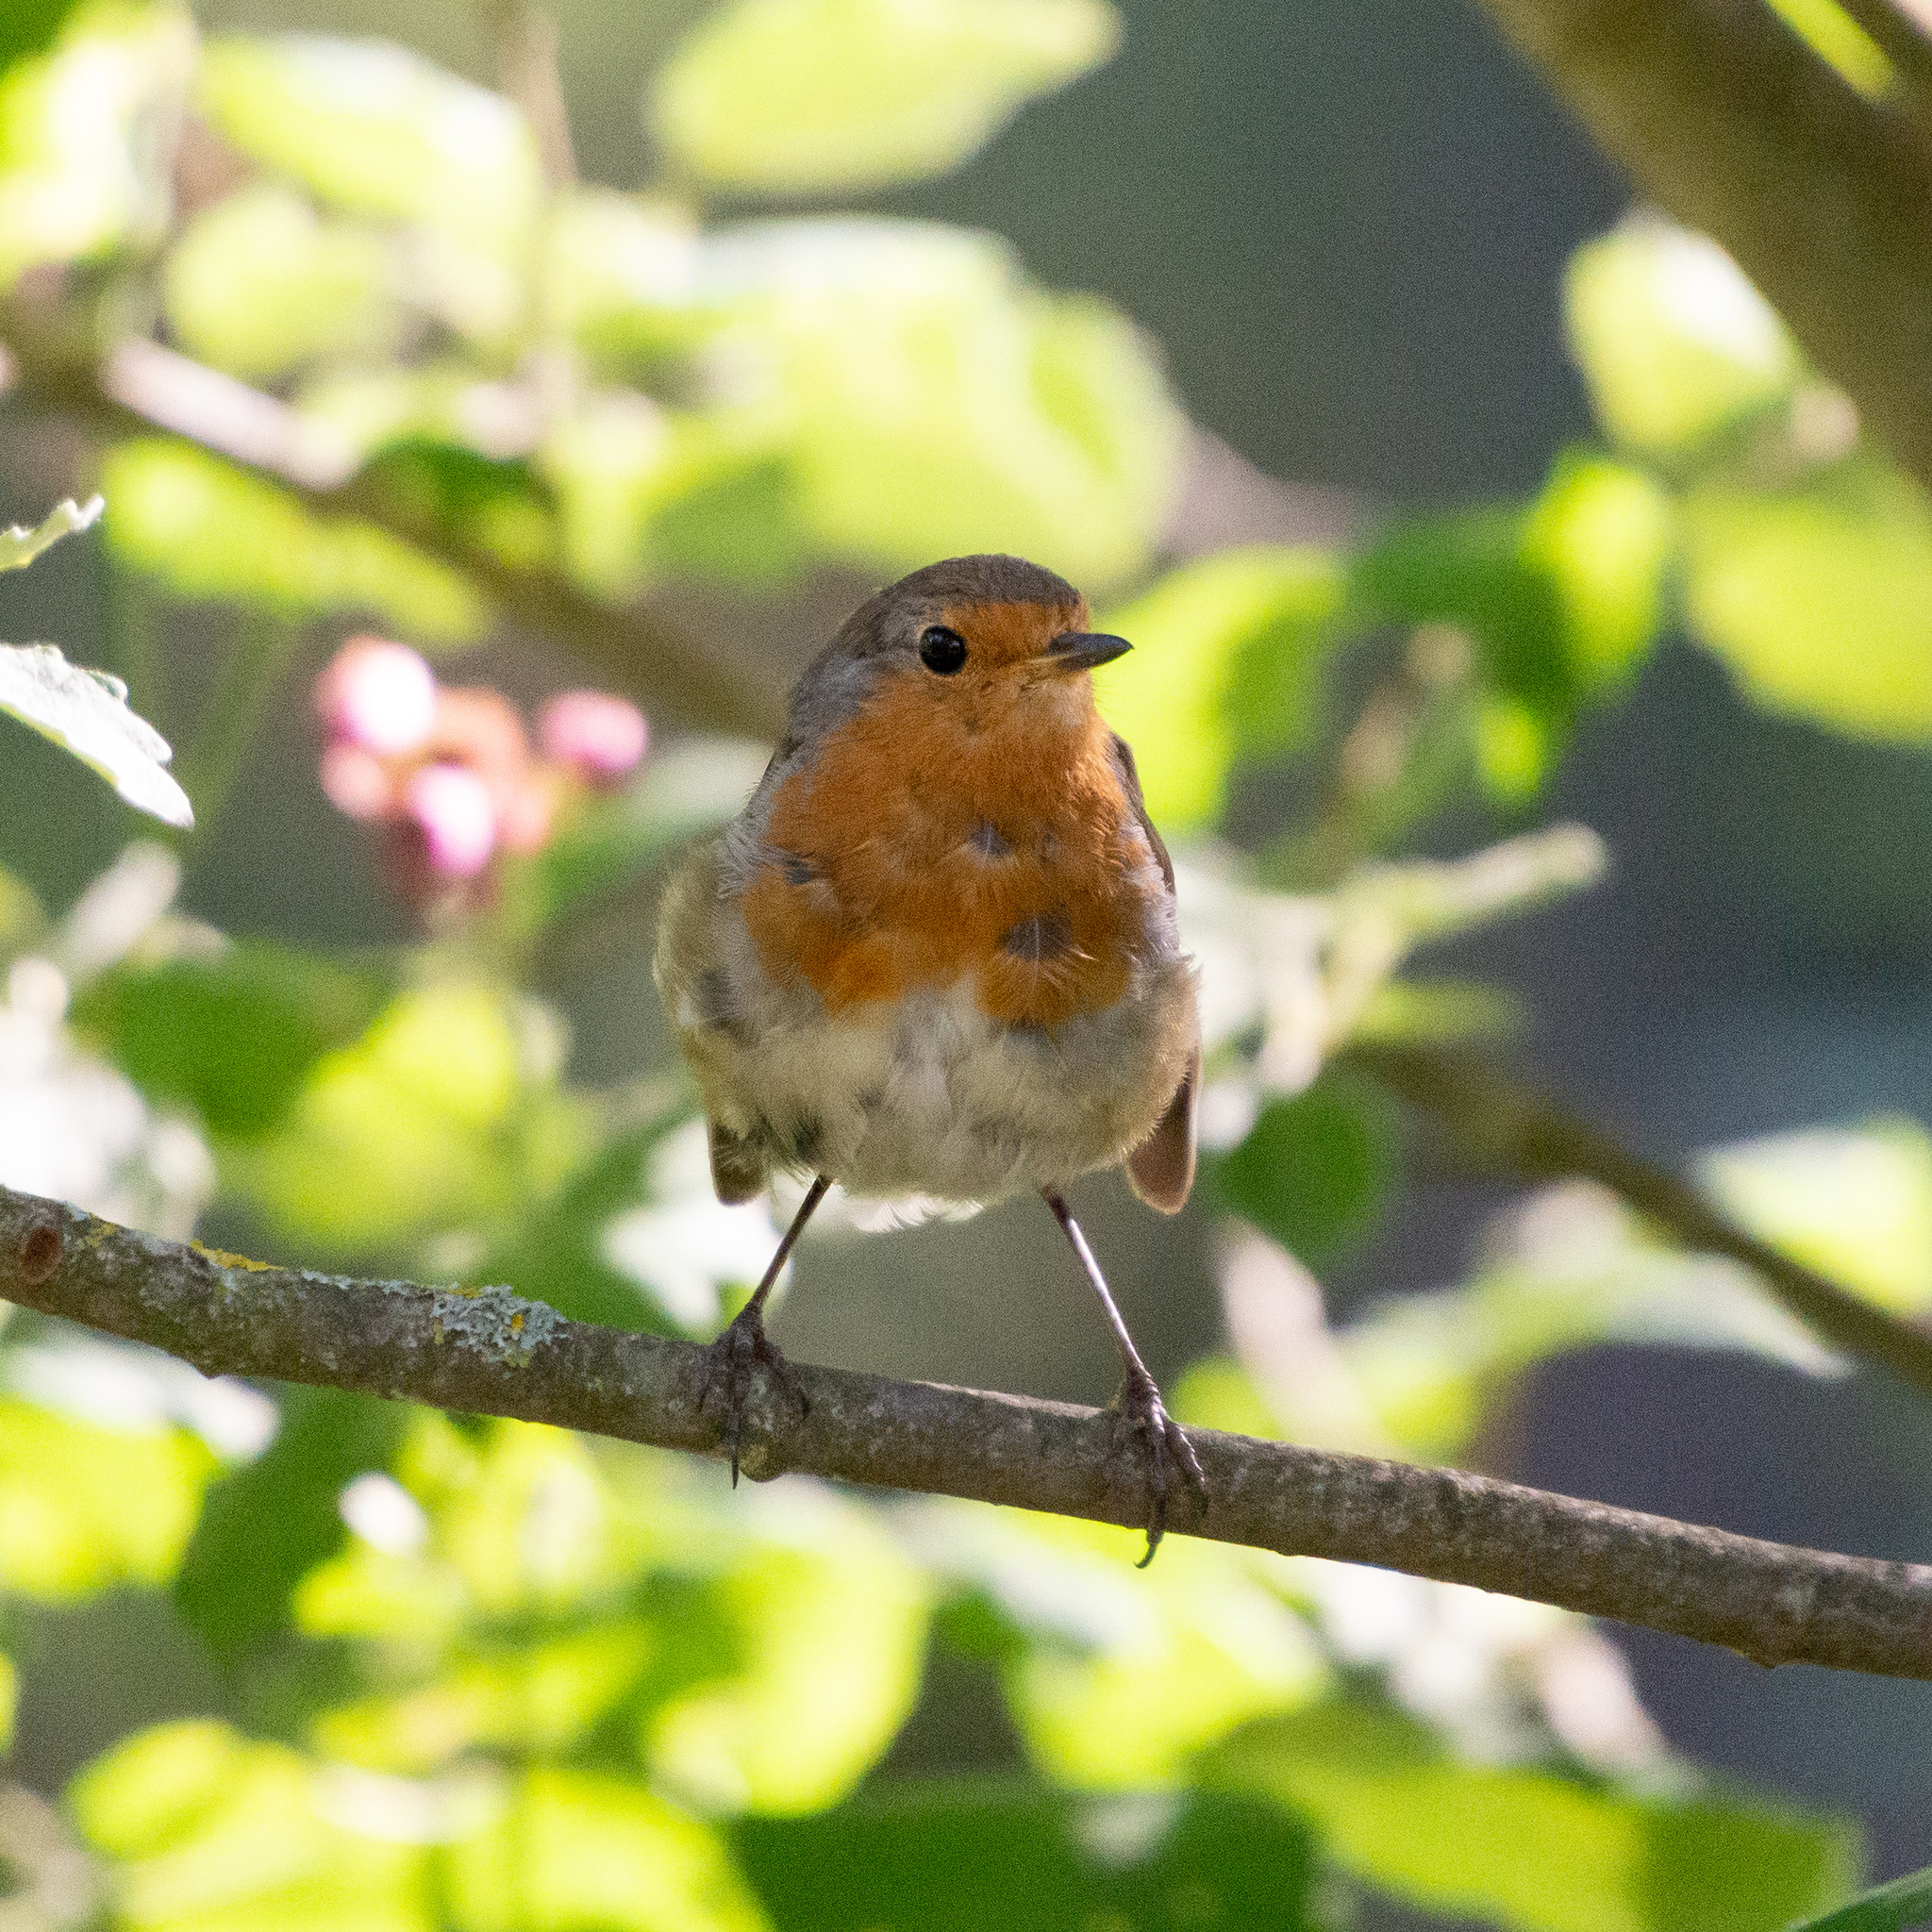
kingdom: Animalia
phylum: Chordata
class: Aves
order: Passeriformes
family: Muscicapidae
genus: Erithacus
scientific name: Erithacus rubecula
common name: European robin
